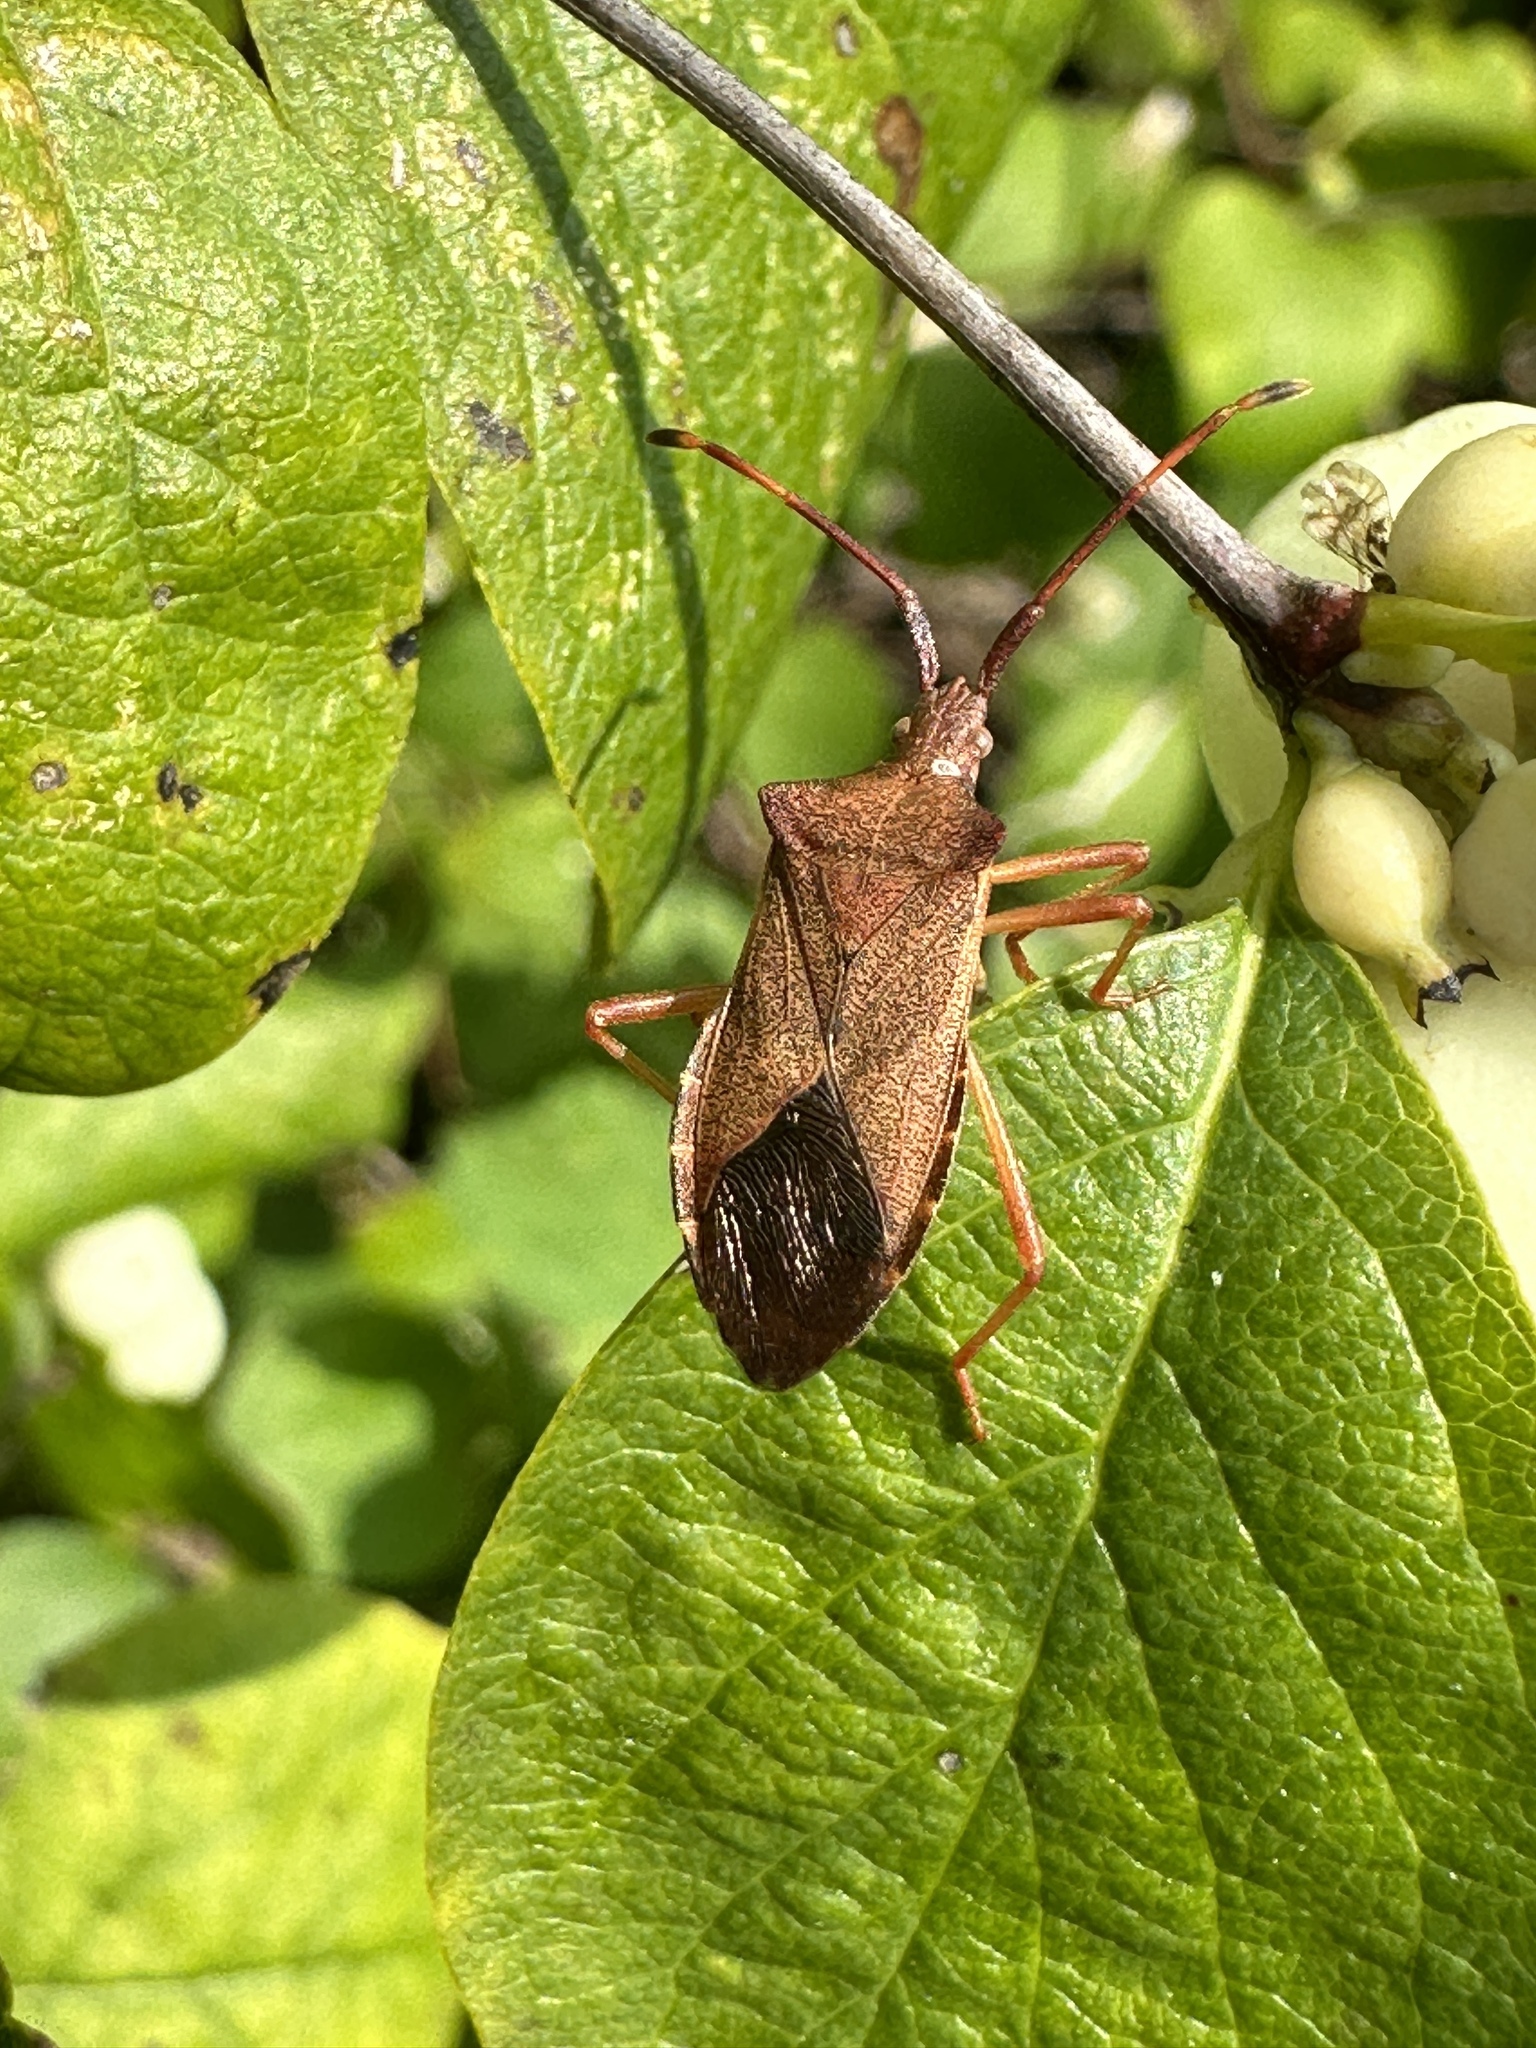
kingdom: Animalia
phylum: Arthropoda
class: Insecta
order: Hemiptera
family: Coreidae
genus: Gonocerus
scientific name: Gonocerus acuteangulatus
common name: Box bug
